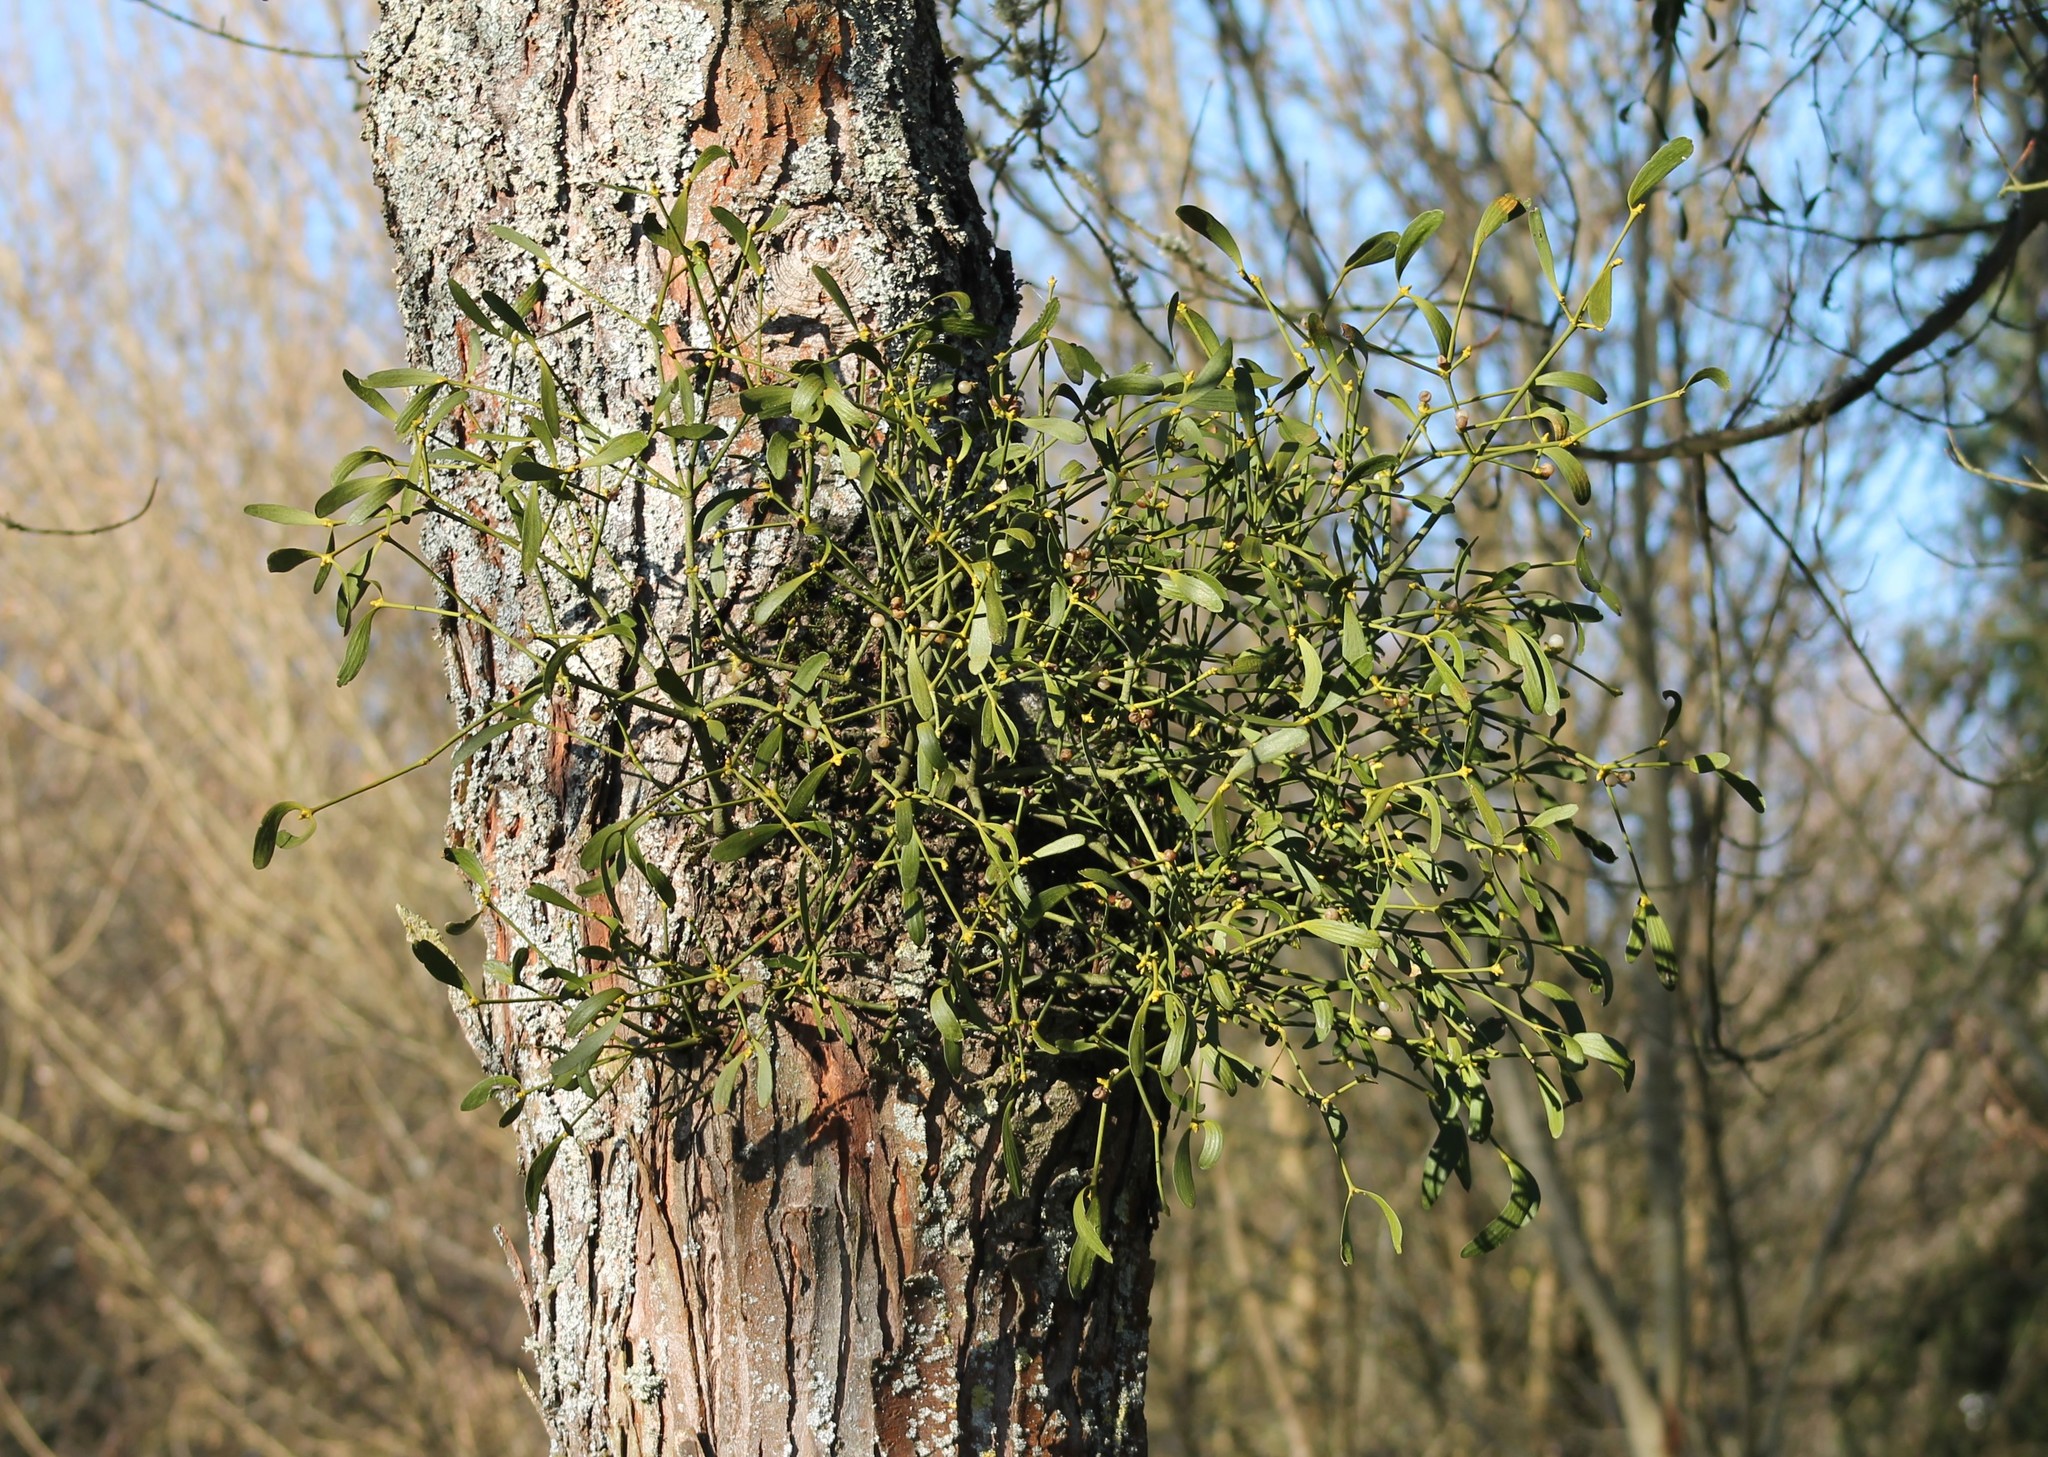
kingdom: Plantae
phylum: Tracheophyta
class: Magnoliopsida
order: Santalales
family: Viscaceae
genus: Viscum
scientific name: Viscum album
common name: Mistletoe
